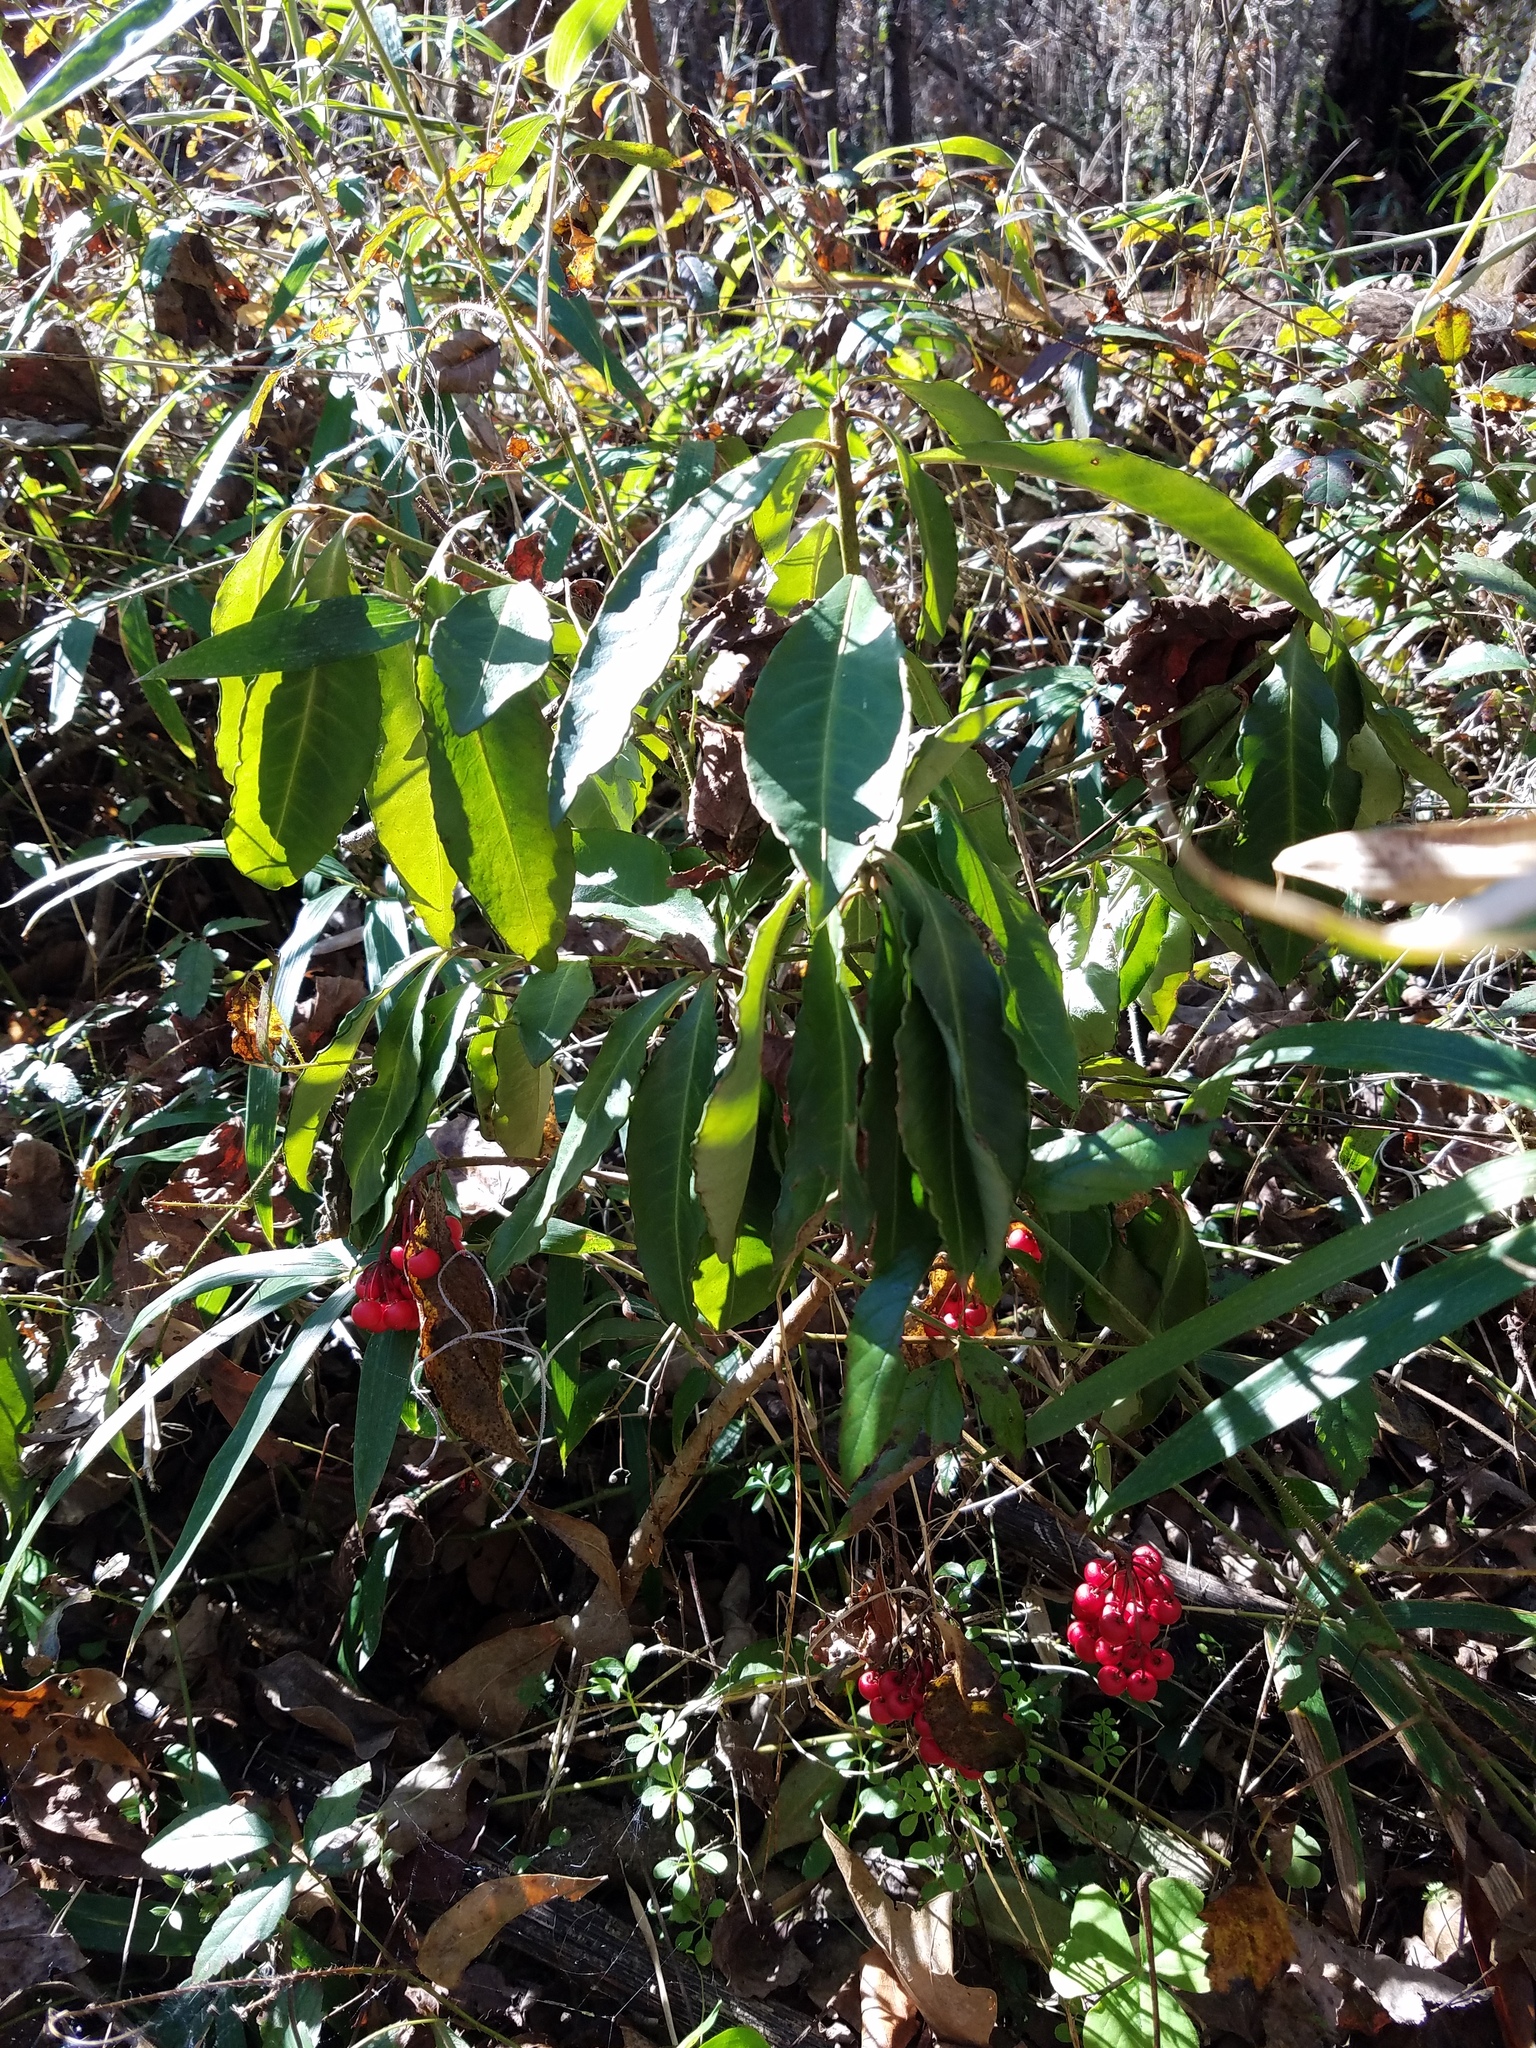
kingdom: Plantae
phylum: Tracheophyta
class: Magnoliopsida
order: Ericales
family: Primulaceae
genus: Ardisia
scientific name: Ardisia crenata
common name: Hen's eyes
